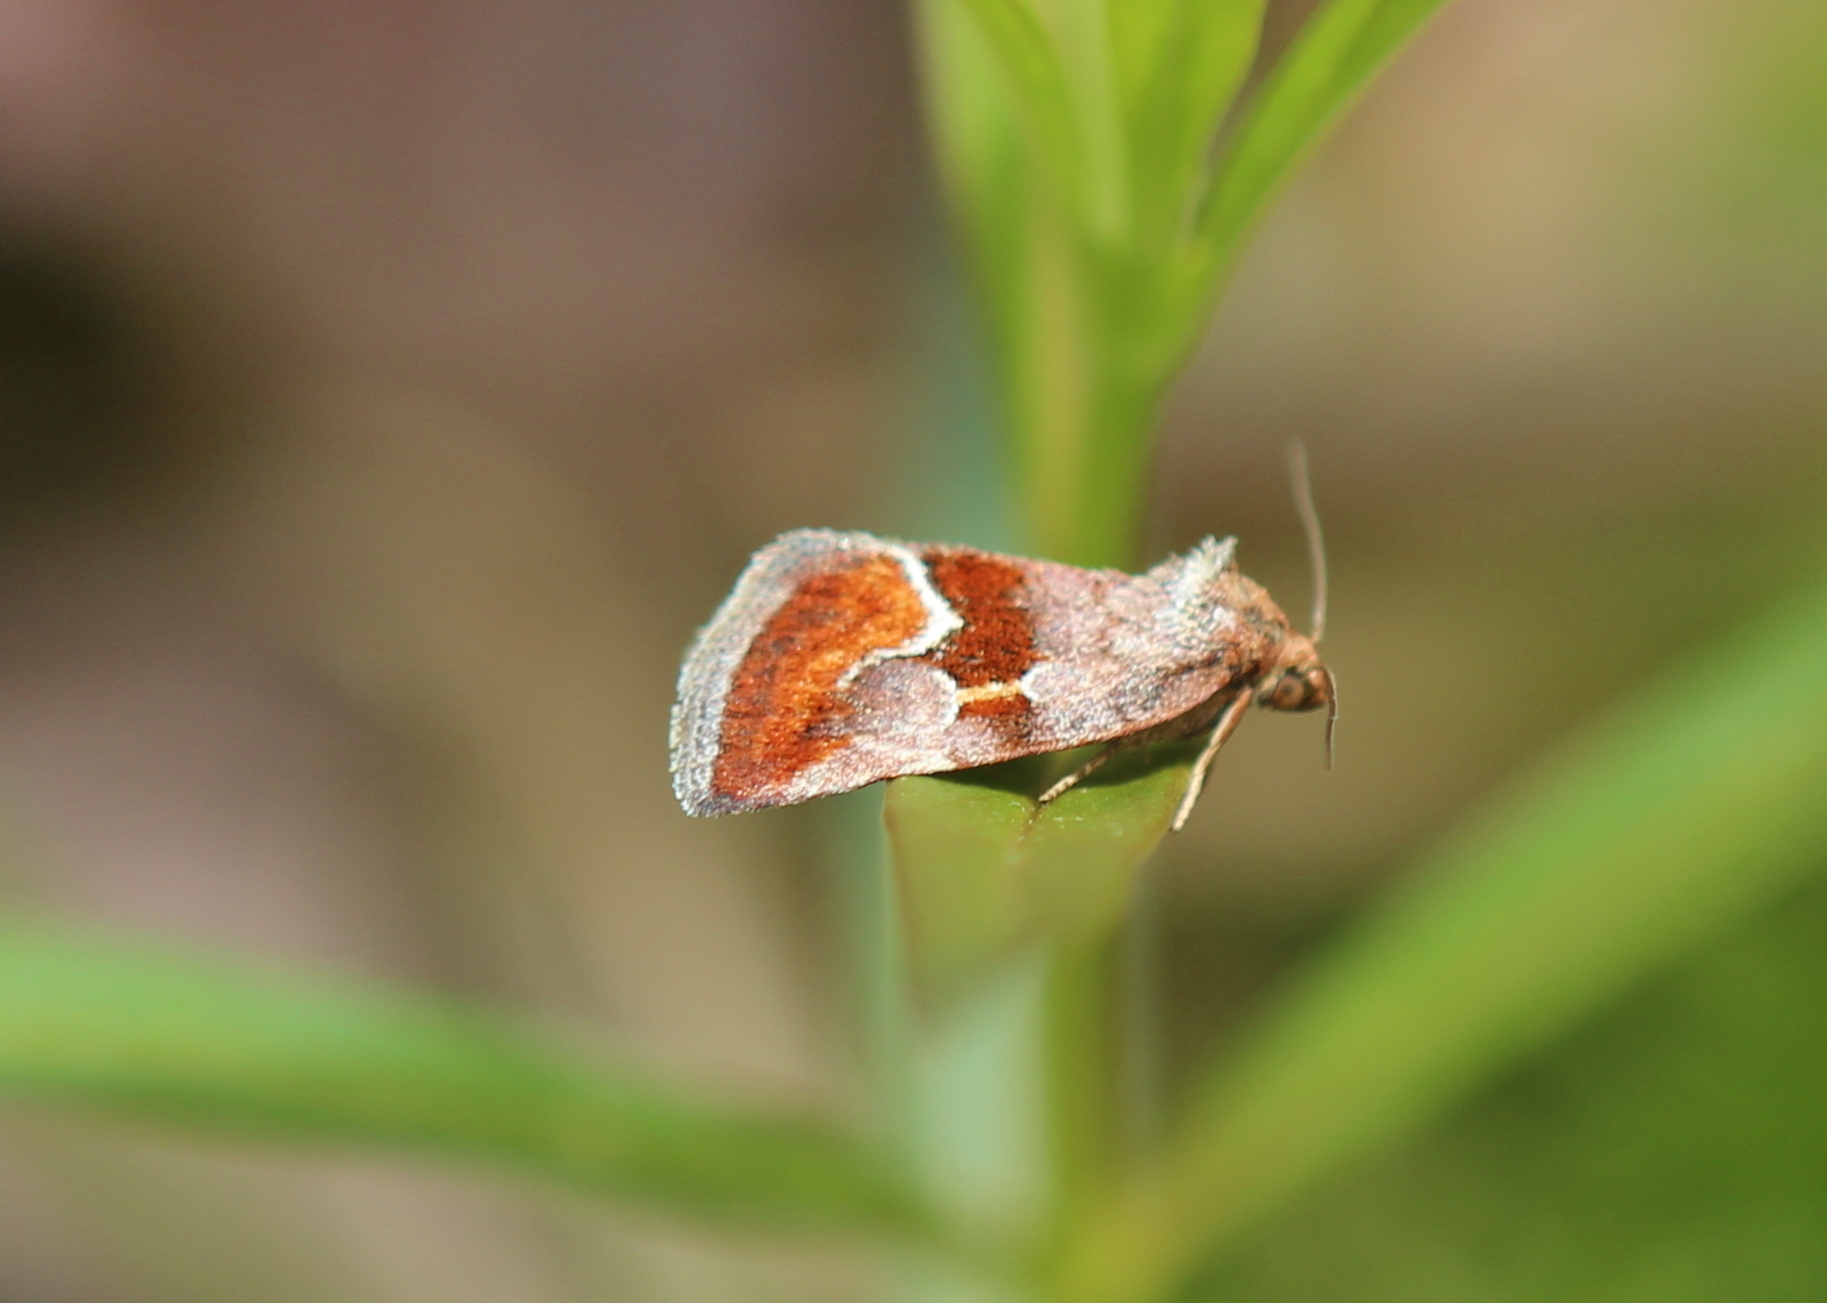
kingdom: Animalia
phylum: Arthropoda
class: Insecta
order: Lepidoptera
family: Noctuidae
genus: Deltote
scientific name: Deltote bellicula
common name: Bog glyph
